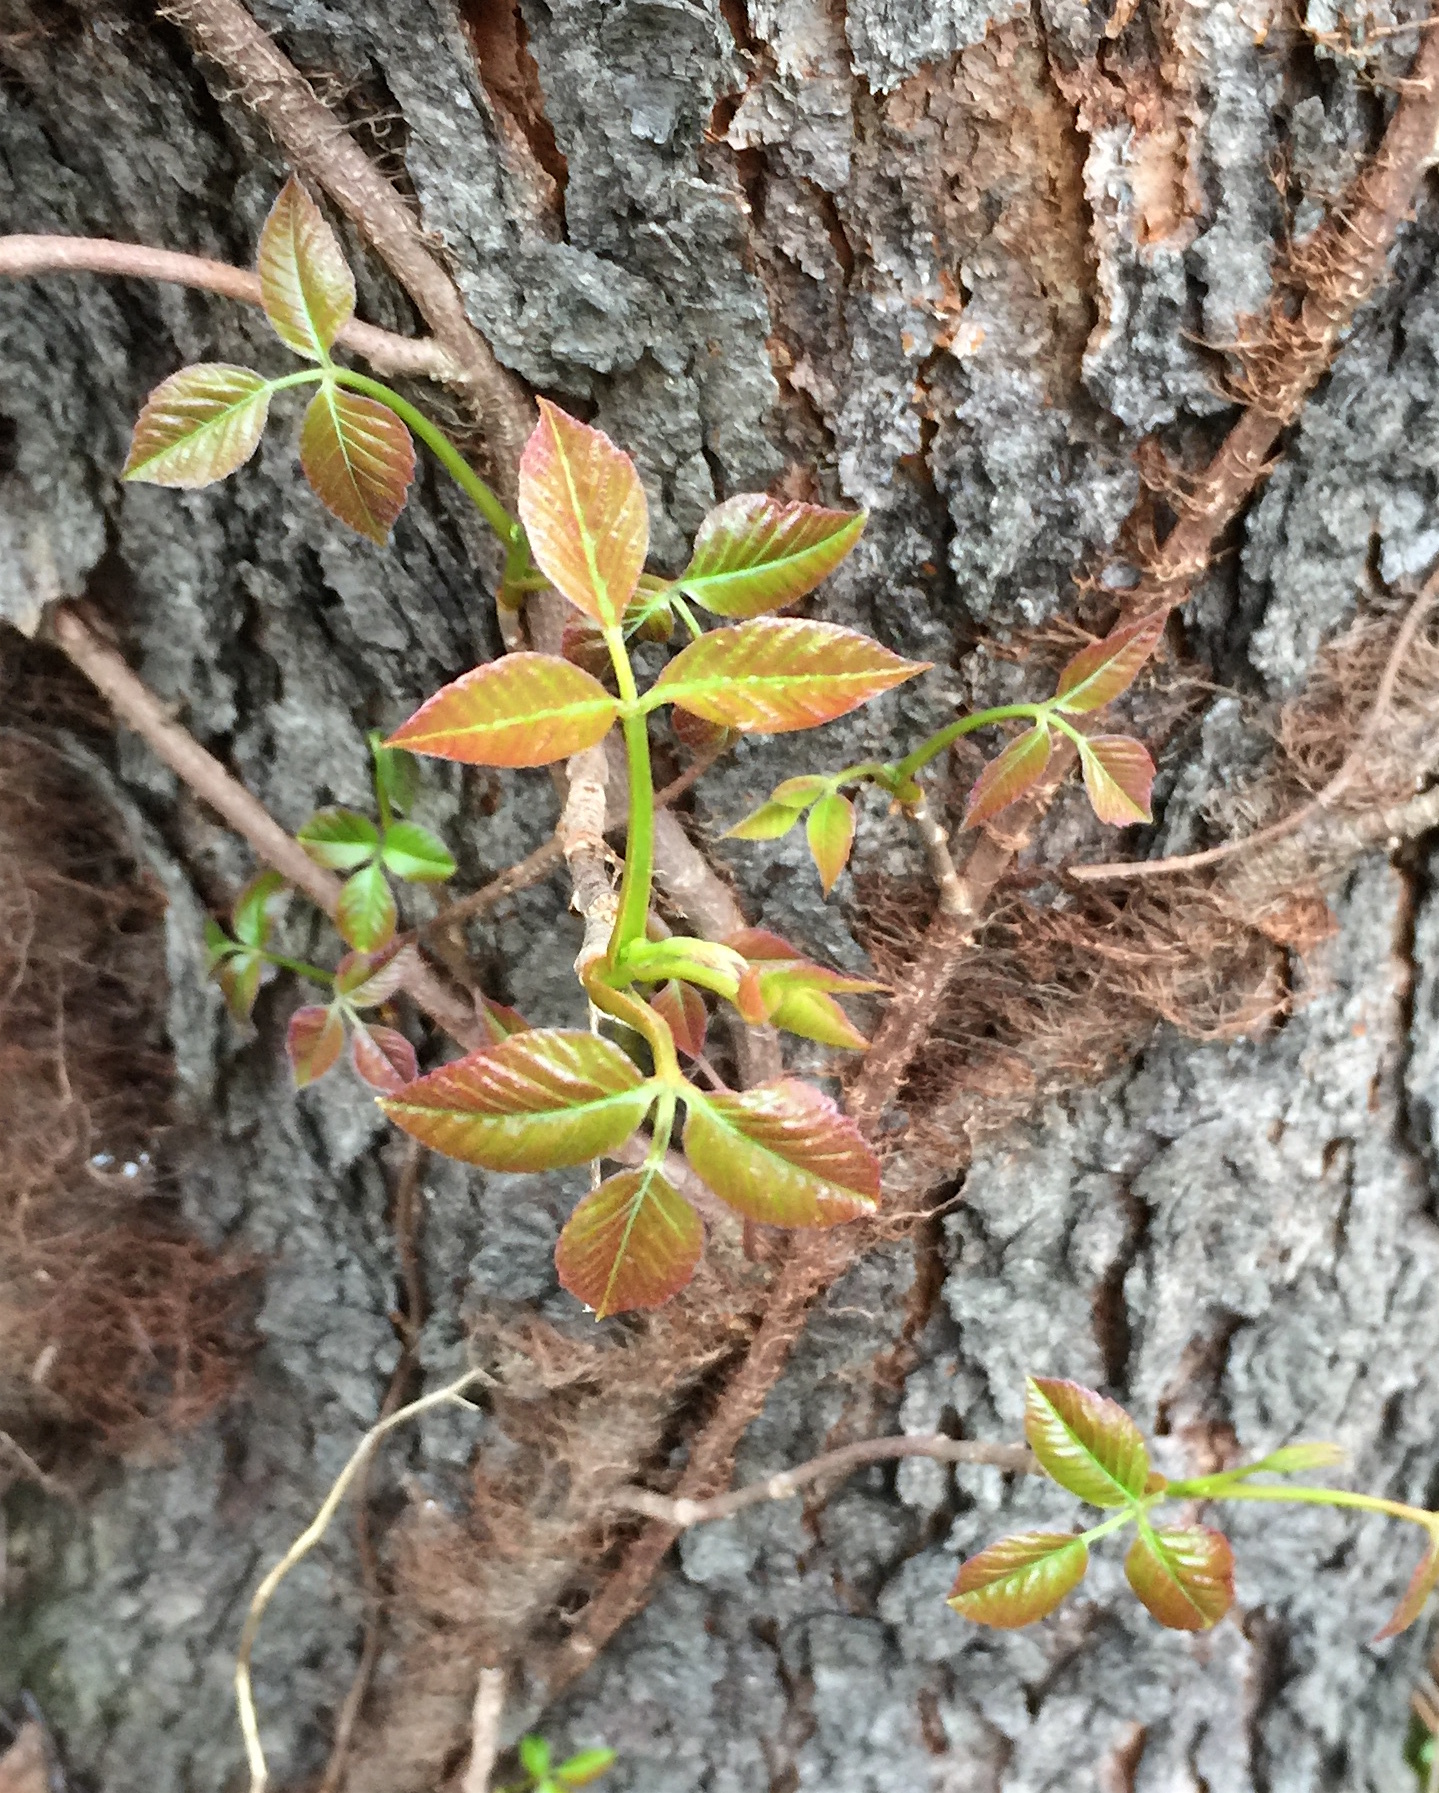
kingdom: Plantae
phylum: Tracheophyta
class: Magnoliopsida
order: Sapindales
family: Anacardiaceae
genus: Toxicodendron
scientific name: Toxicodendron radicans
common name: Poison ivy
